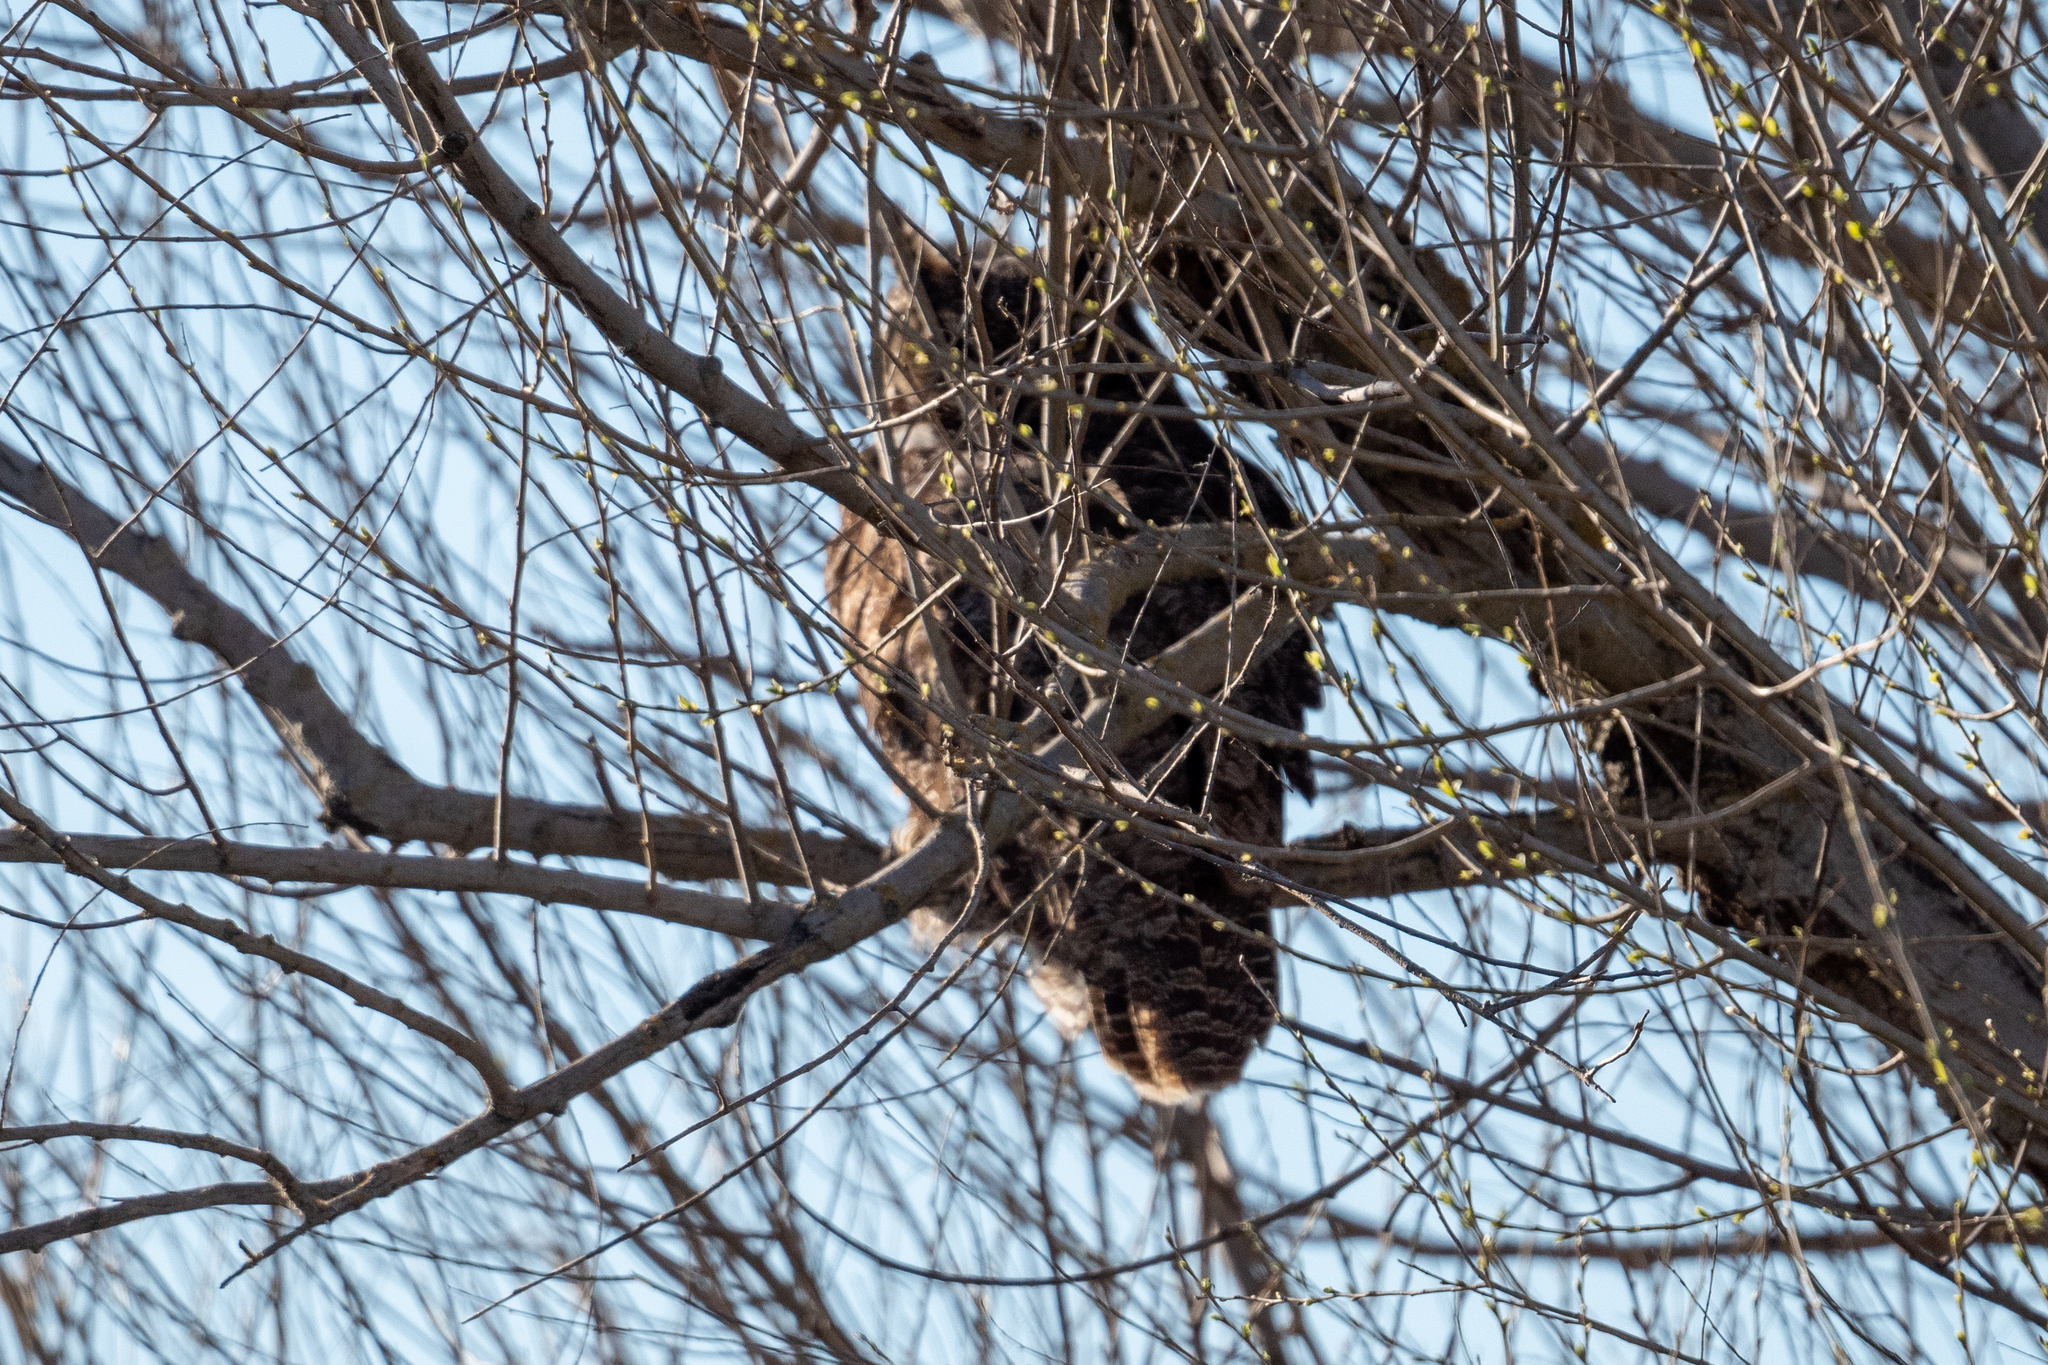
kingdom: Animalia
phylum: Chordata
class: Aves
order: Strigiformes
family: Strigidae
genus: Bubo
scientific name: Bubo virginianus
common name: Great horned owl
